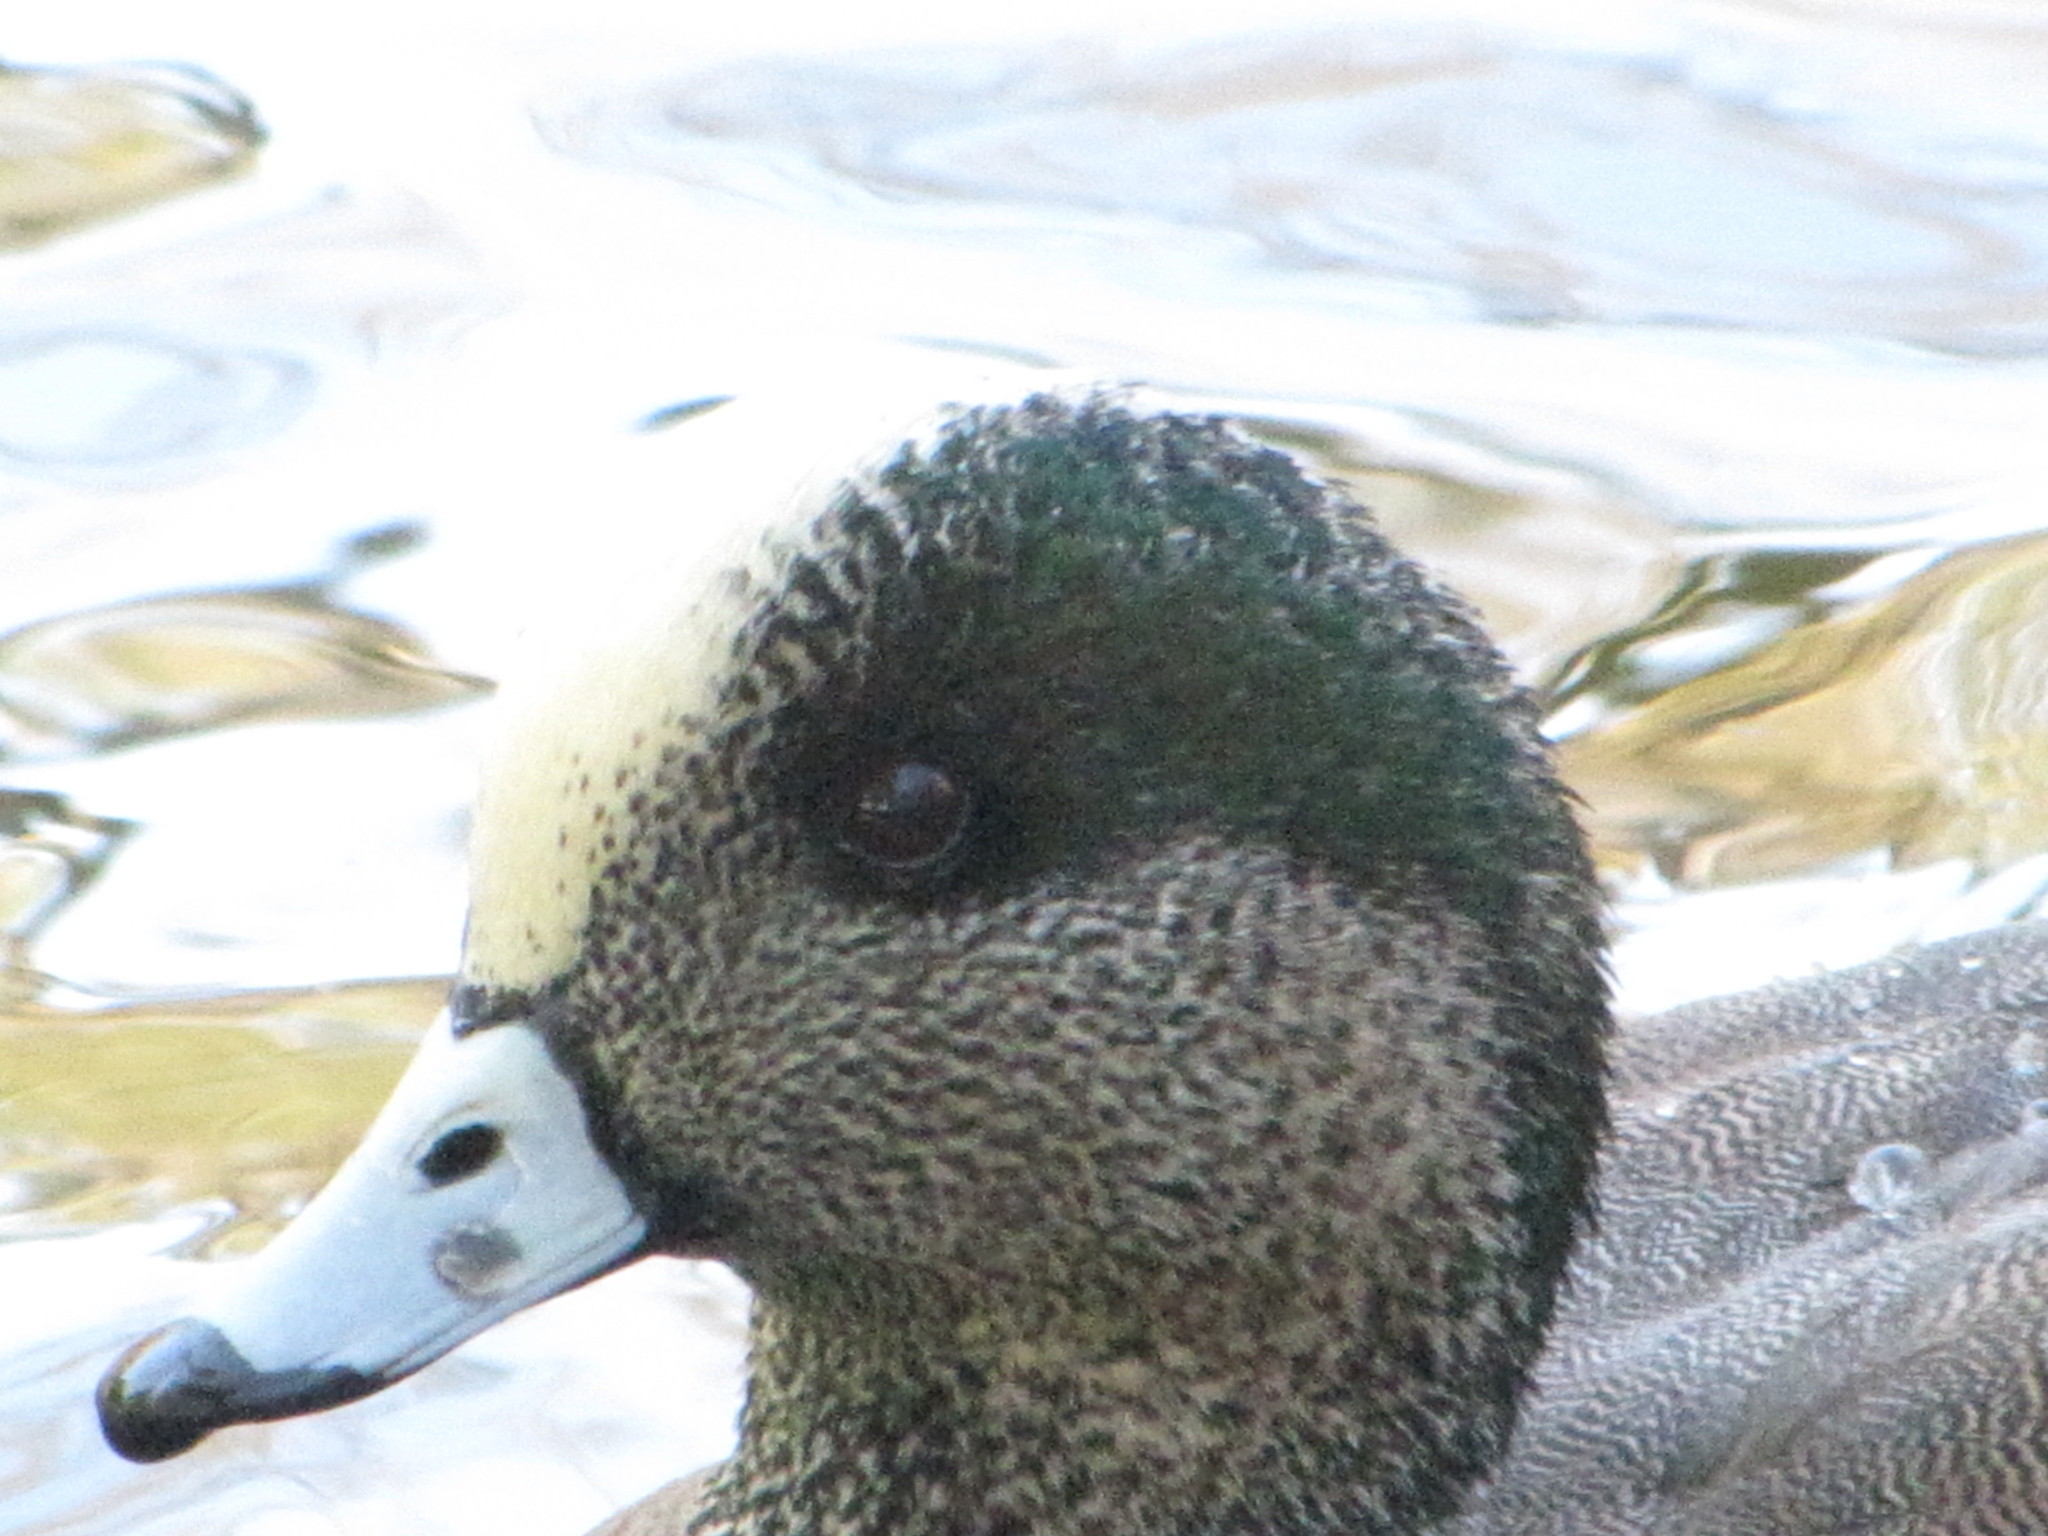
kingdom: Animalia
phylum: Chordata
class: Aves
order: Anseriformes
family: Anatidae
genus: Mareca
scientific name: Mareca americana
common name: American wigeon
